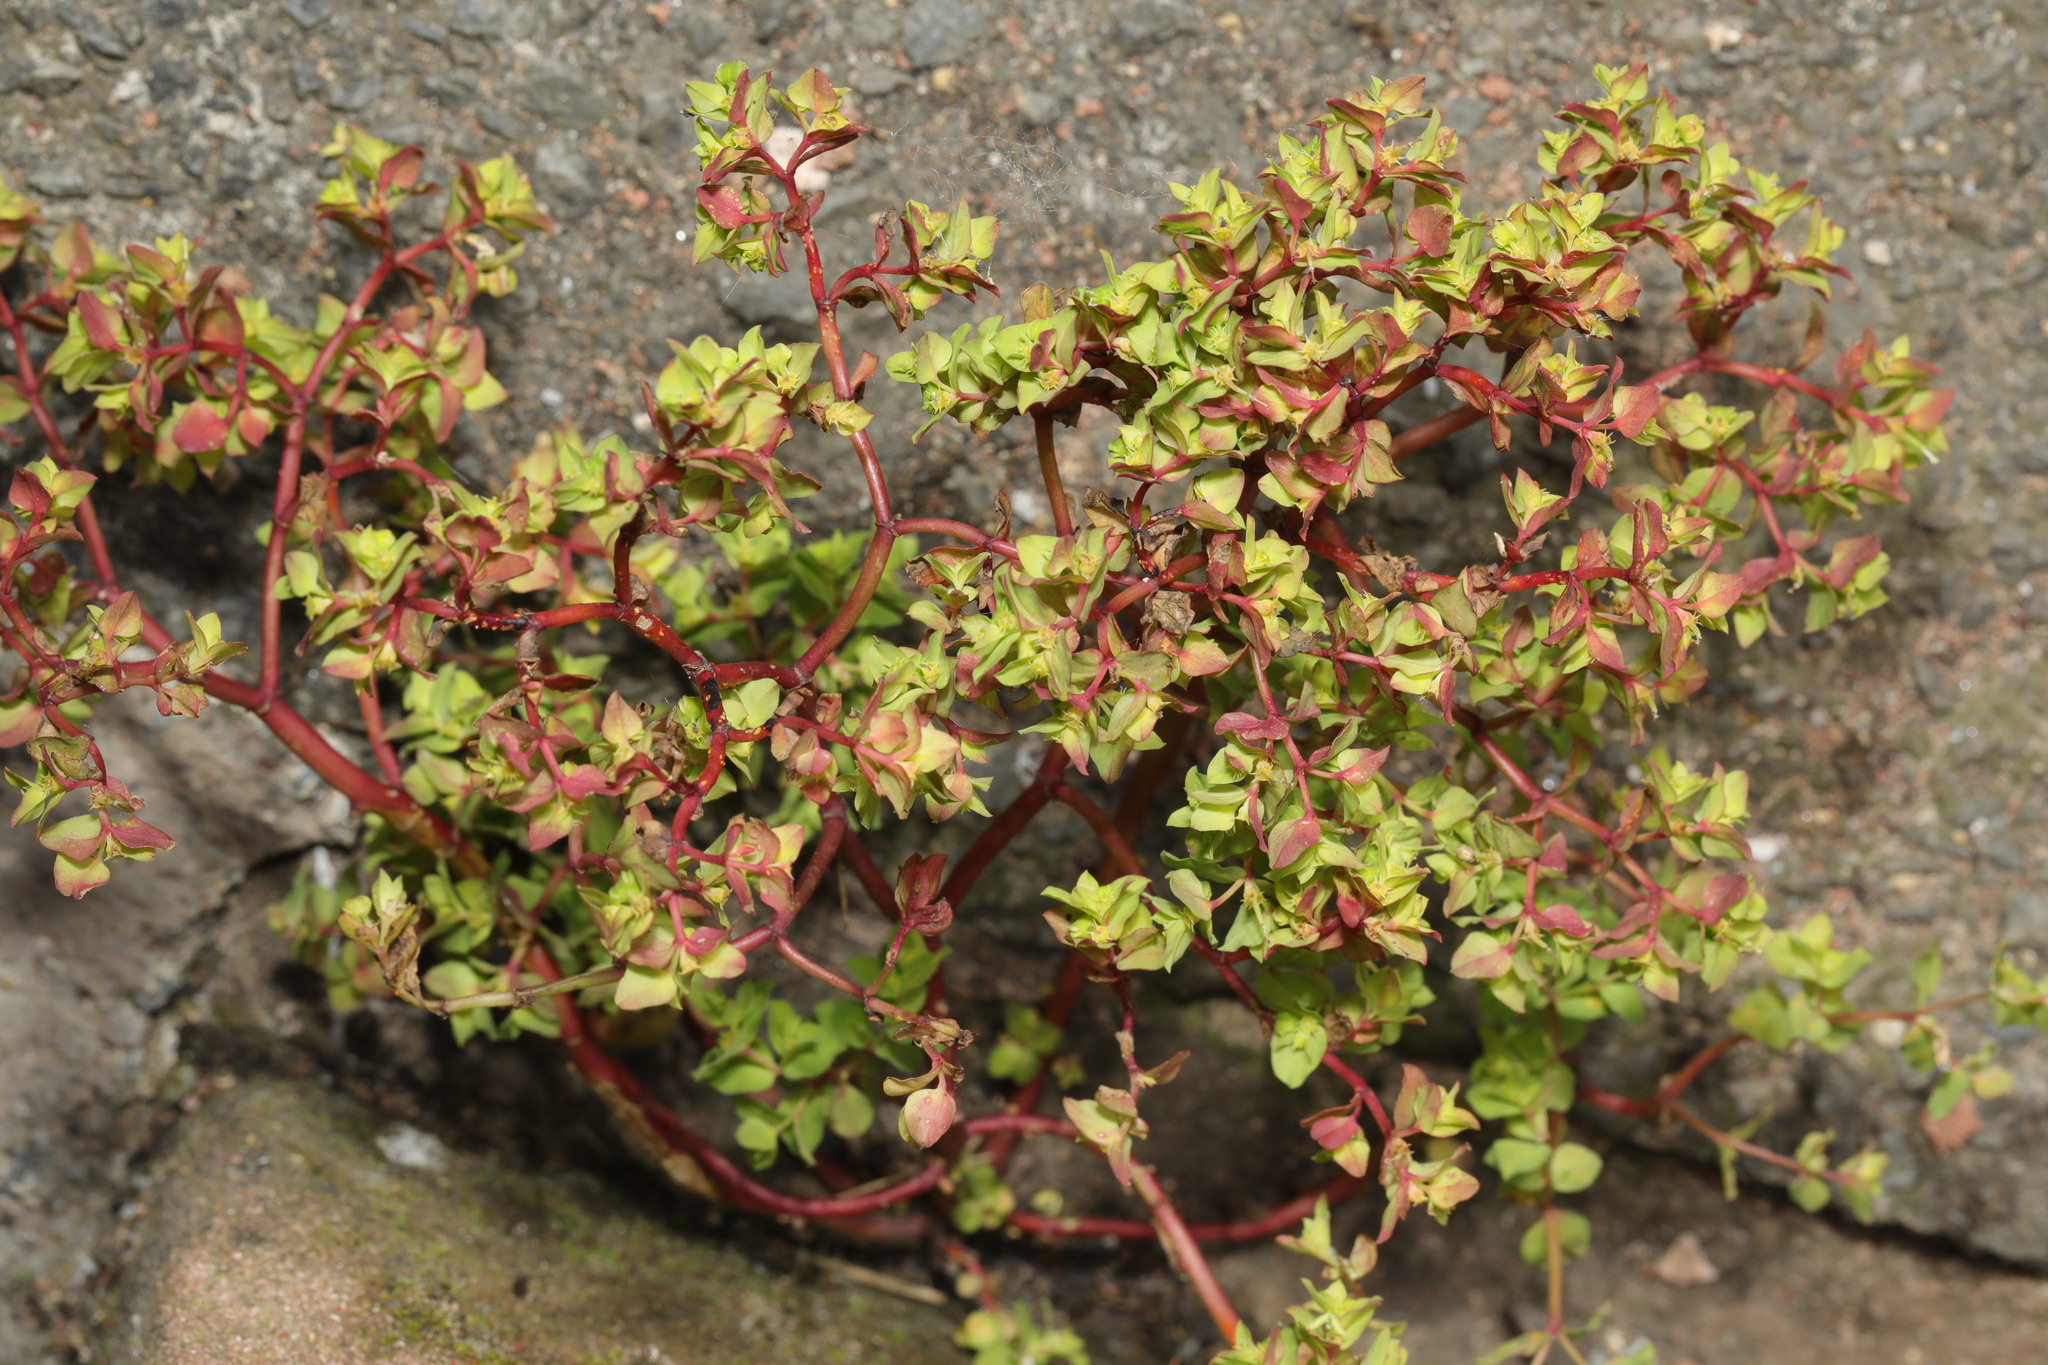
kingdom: Plantae
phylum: Tracheophyta
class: Magnoliopsida
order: Malpighiales
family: Euphorbiaceae
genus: Euphorbia
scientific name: Euphorbia peplus
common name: Petty spurge
